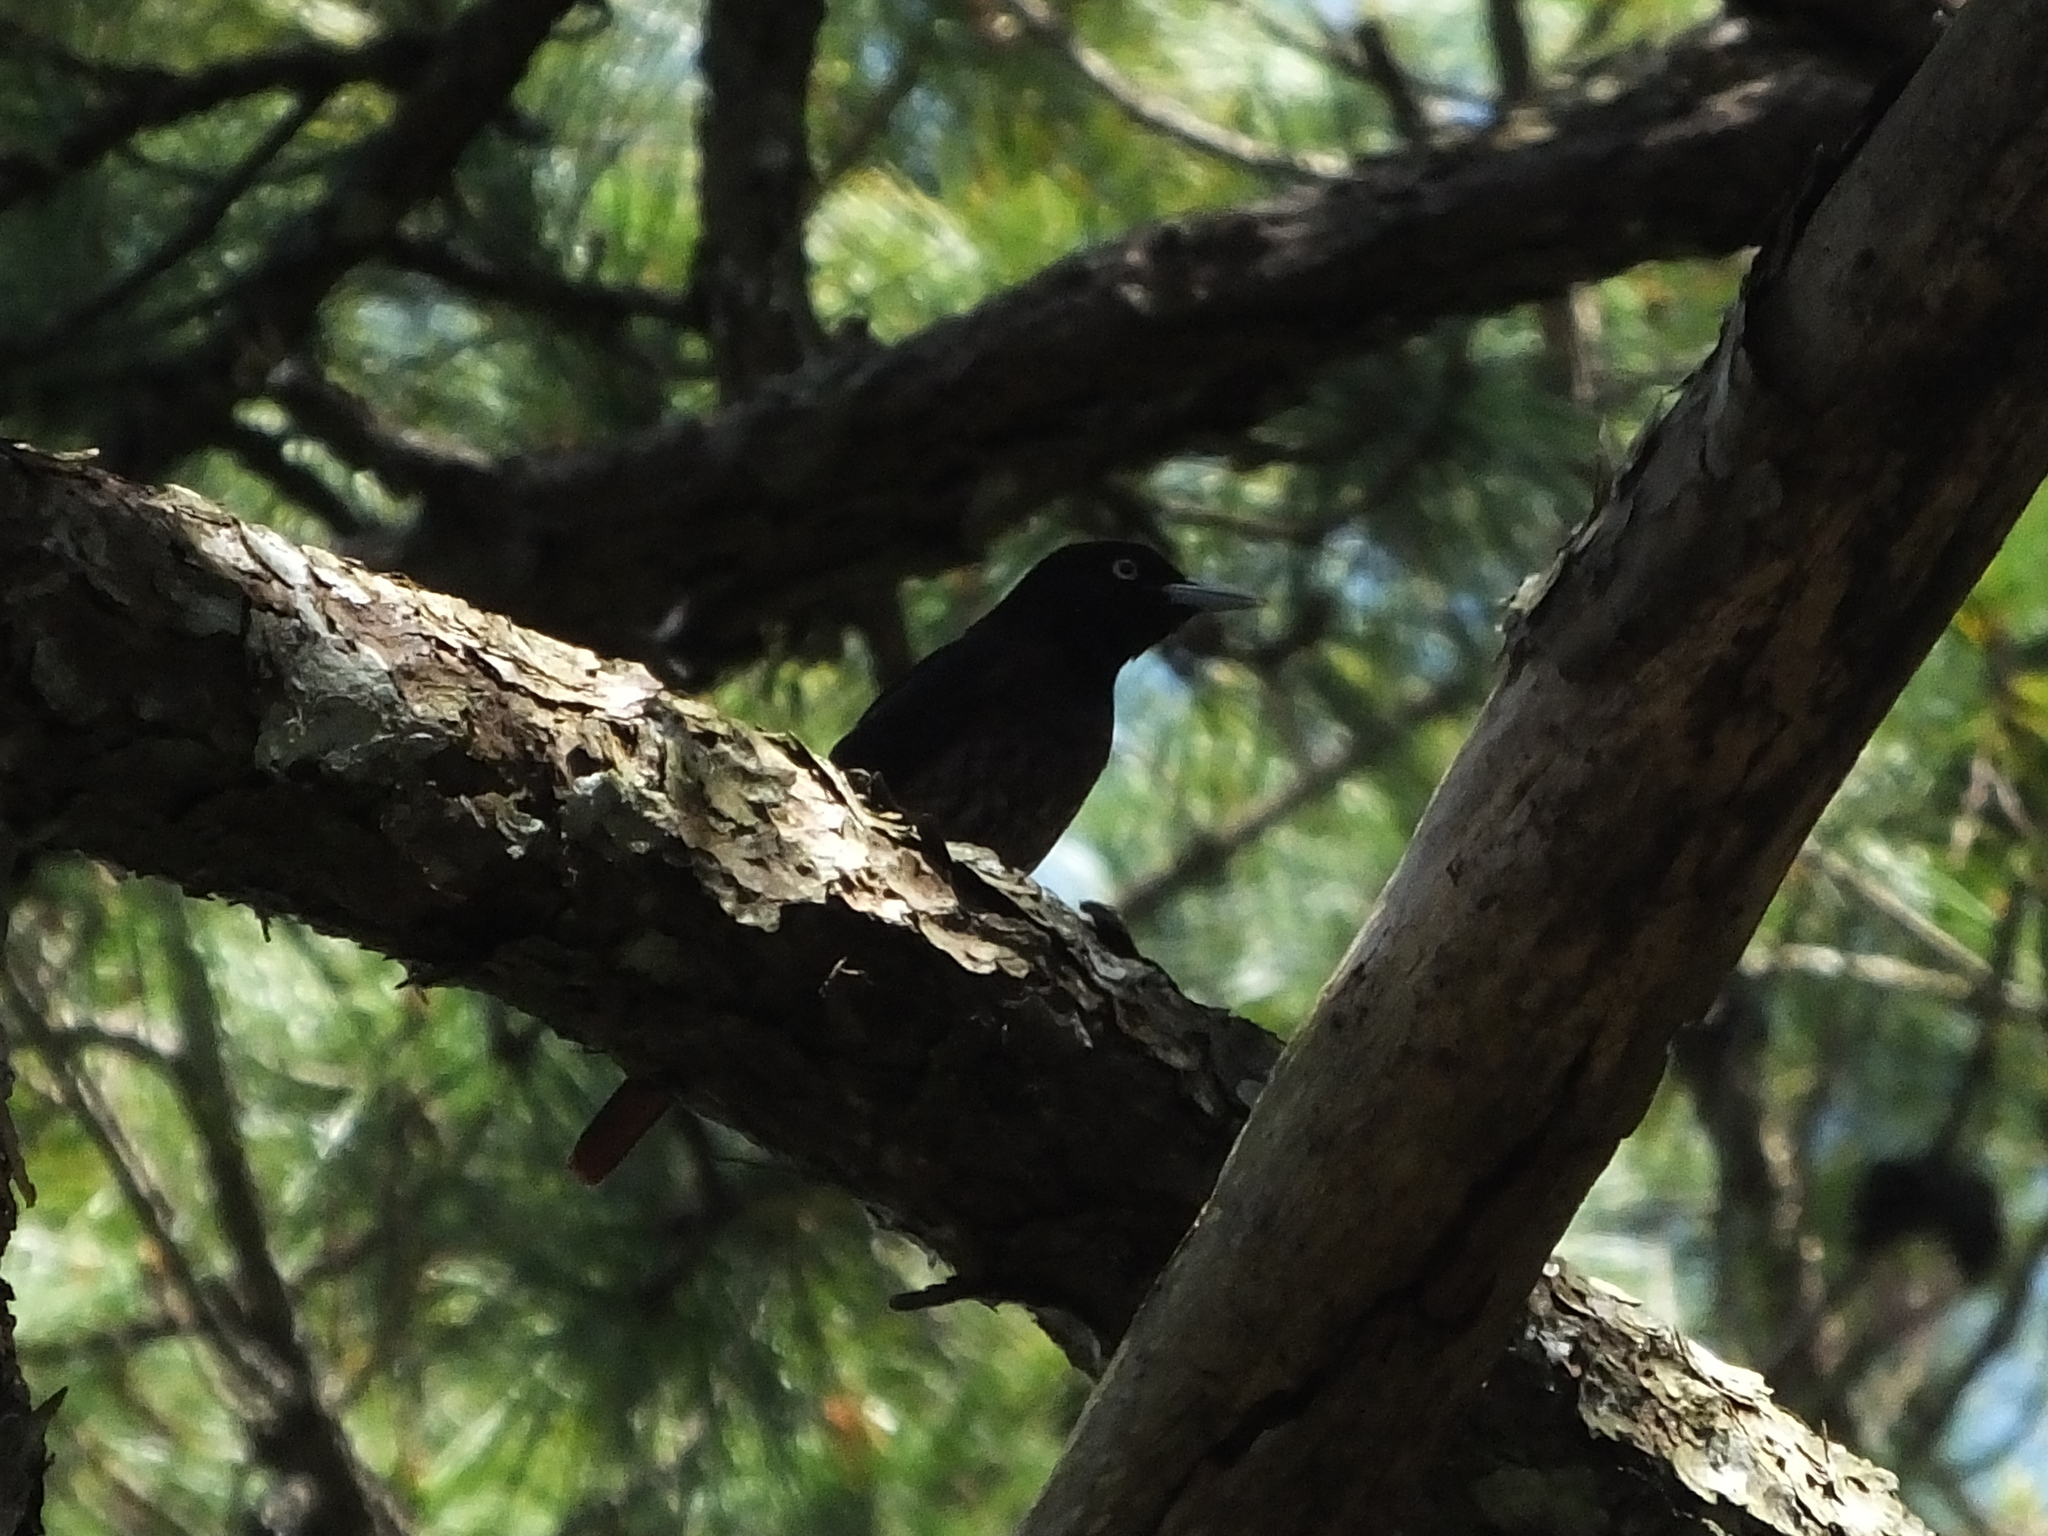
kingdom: Animalia
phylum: Chordata
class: Aves
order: Passeriformes
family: Oriolidae
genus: Oriolus
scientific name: Oriolus traillii
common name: Maroon oriole
